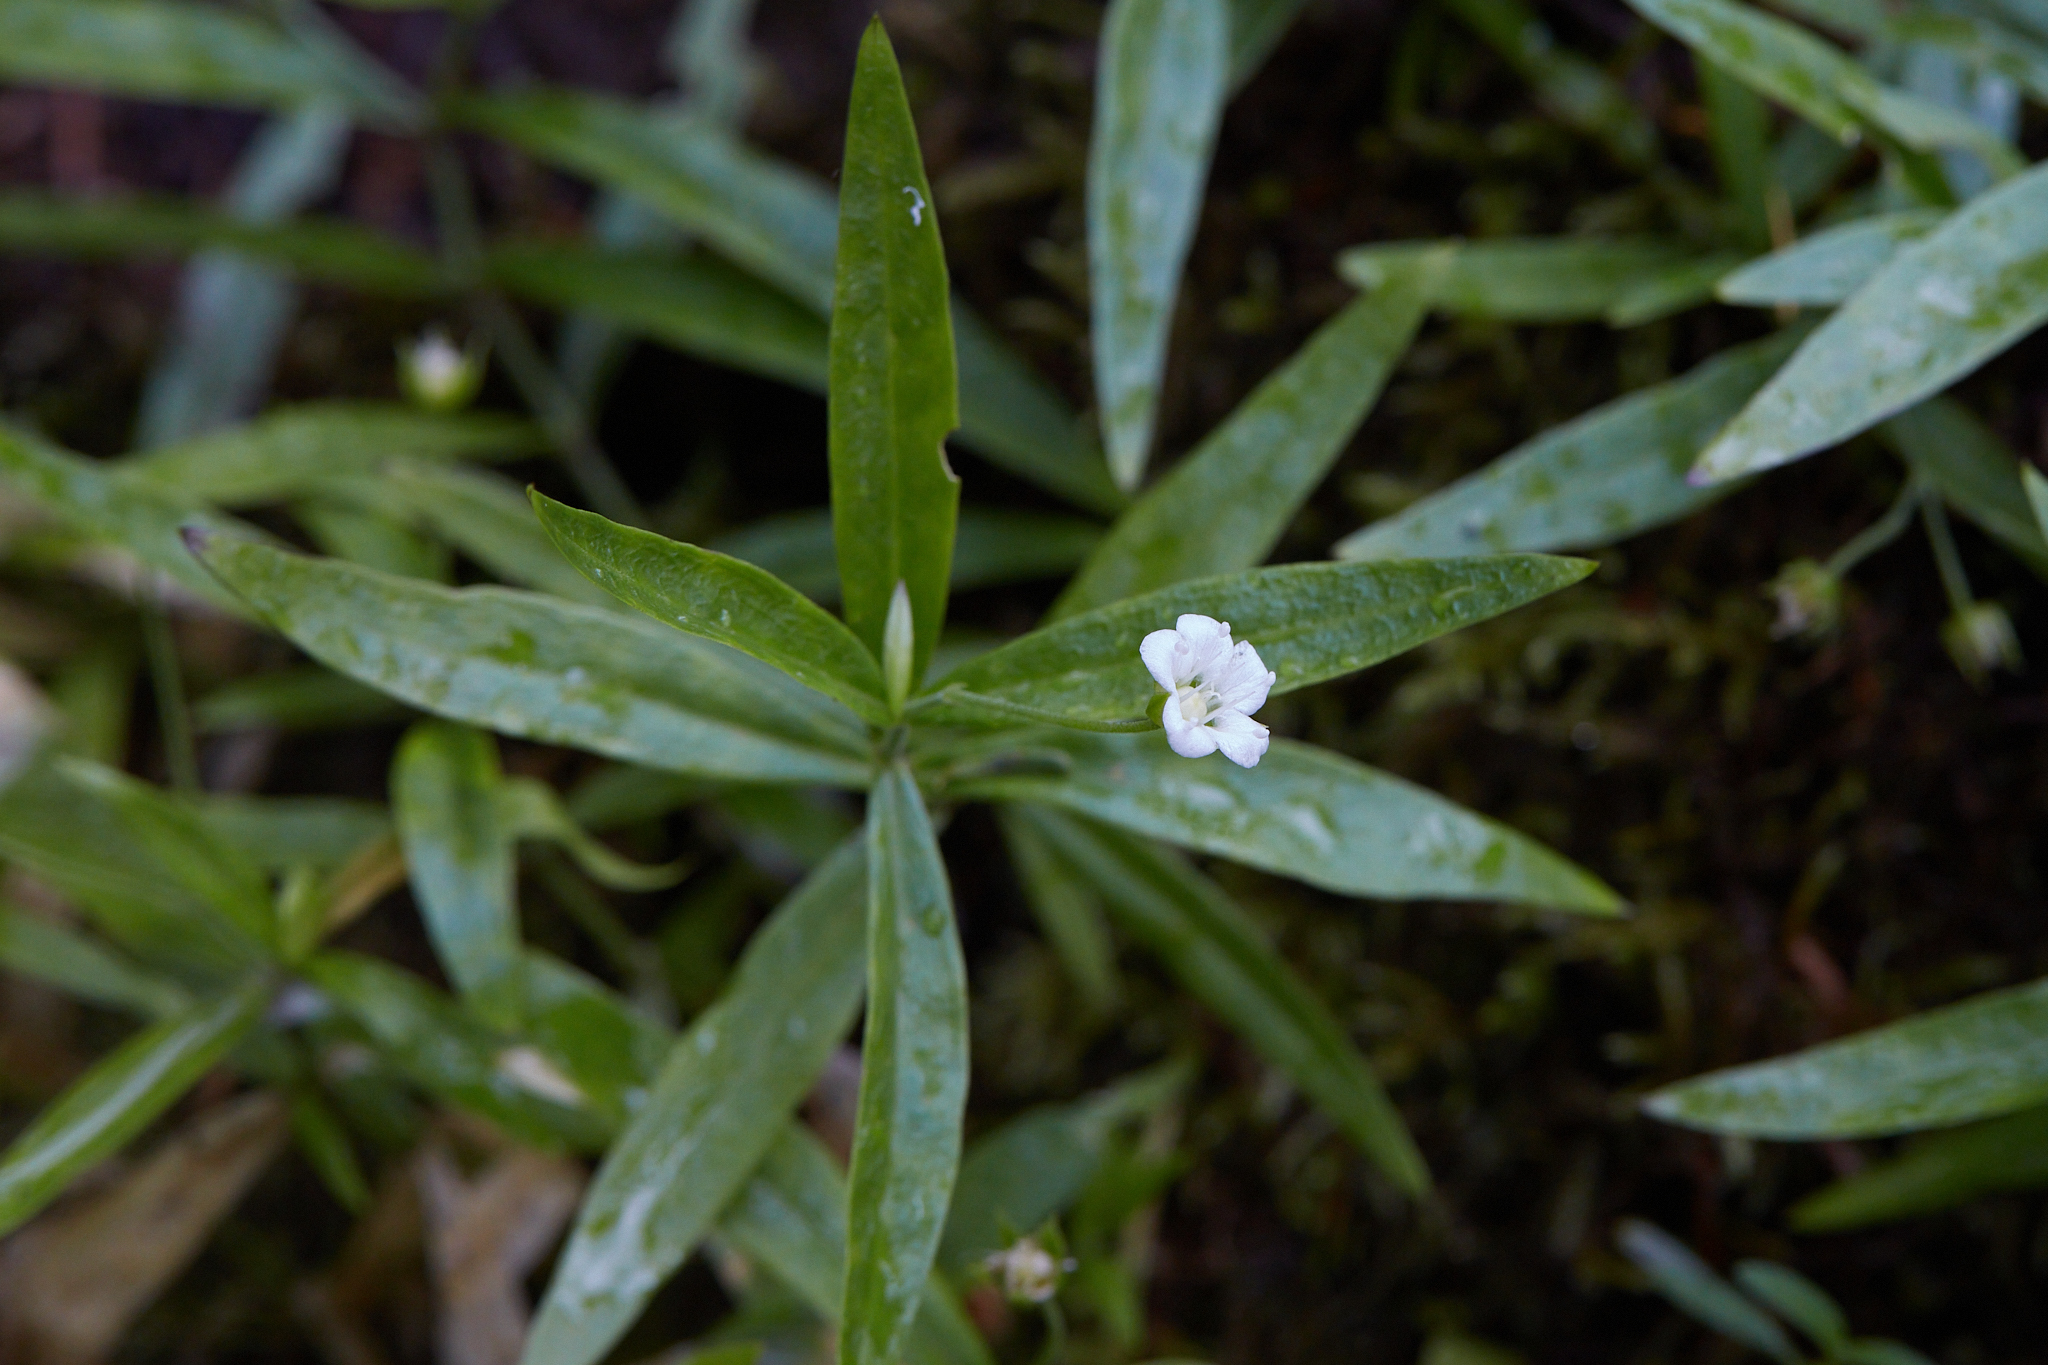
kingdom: Plantae
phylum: Tracheophyta
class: Magnoliopsida
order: Caryophyllales
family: Caryophyllaceae
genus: Moehringia
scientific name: Moehringia macrophylla
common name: Big-leaf sandwort
